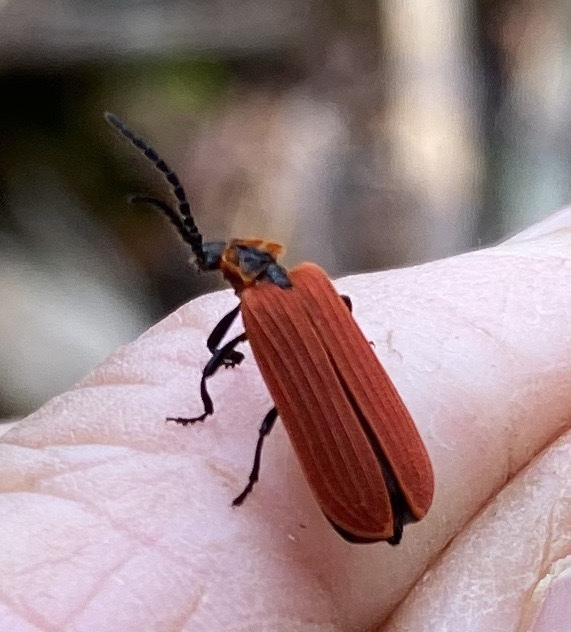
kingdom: Animalia
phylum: Arthropoda
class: Insecta
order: Coleoptera
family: Lycidae
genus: Dictyoptera
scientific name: Dictyoptera aurora
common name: Golden net-winged beetle
